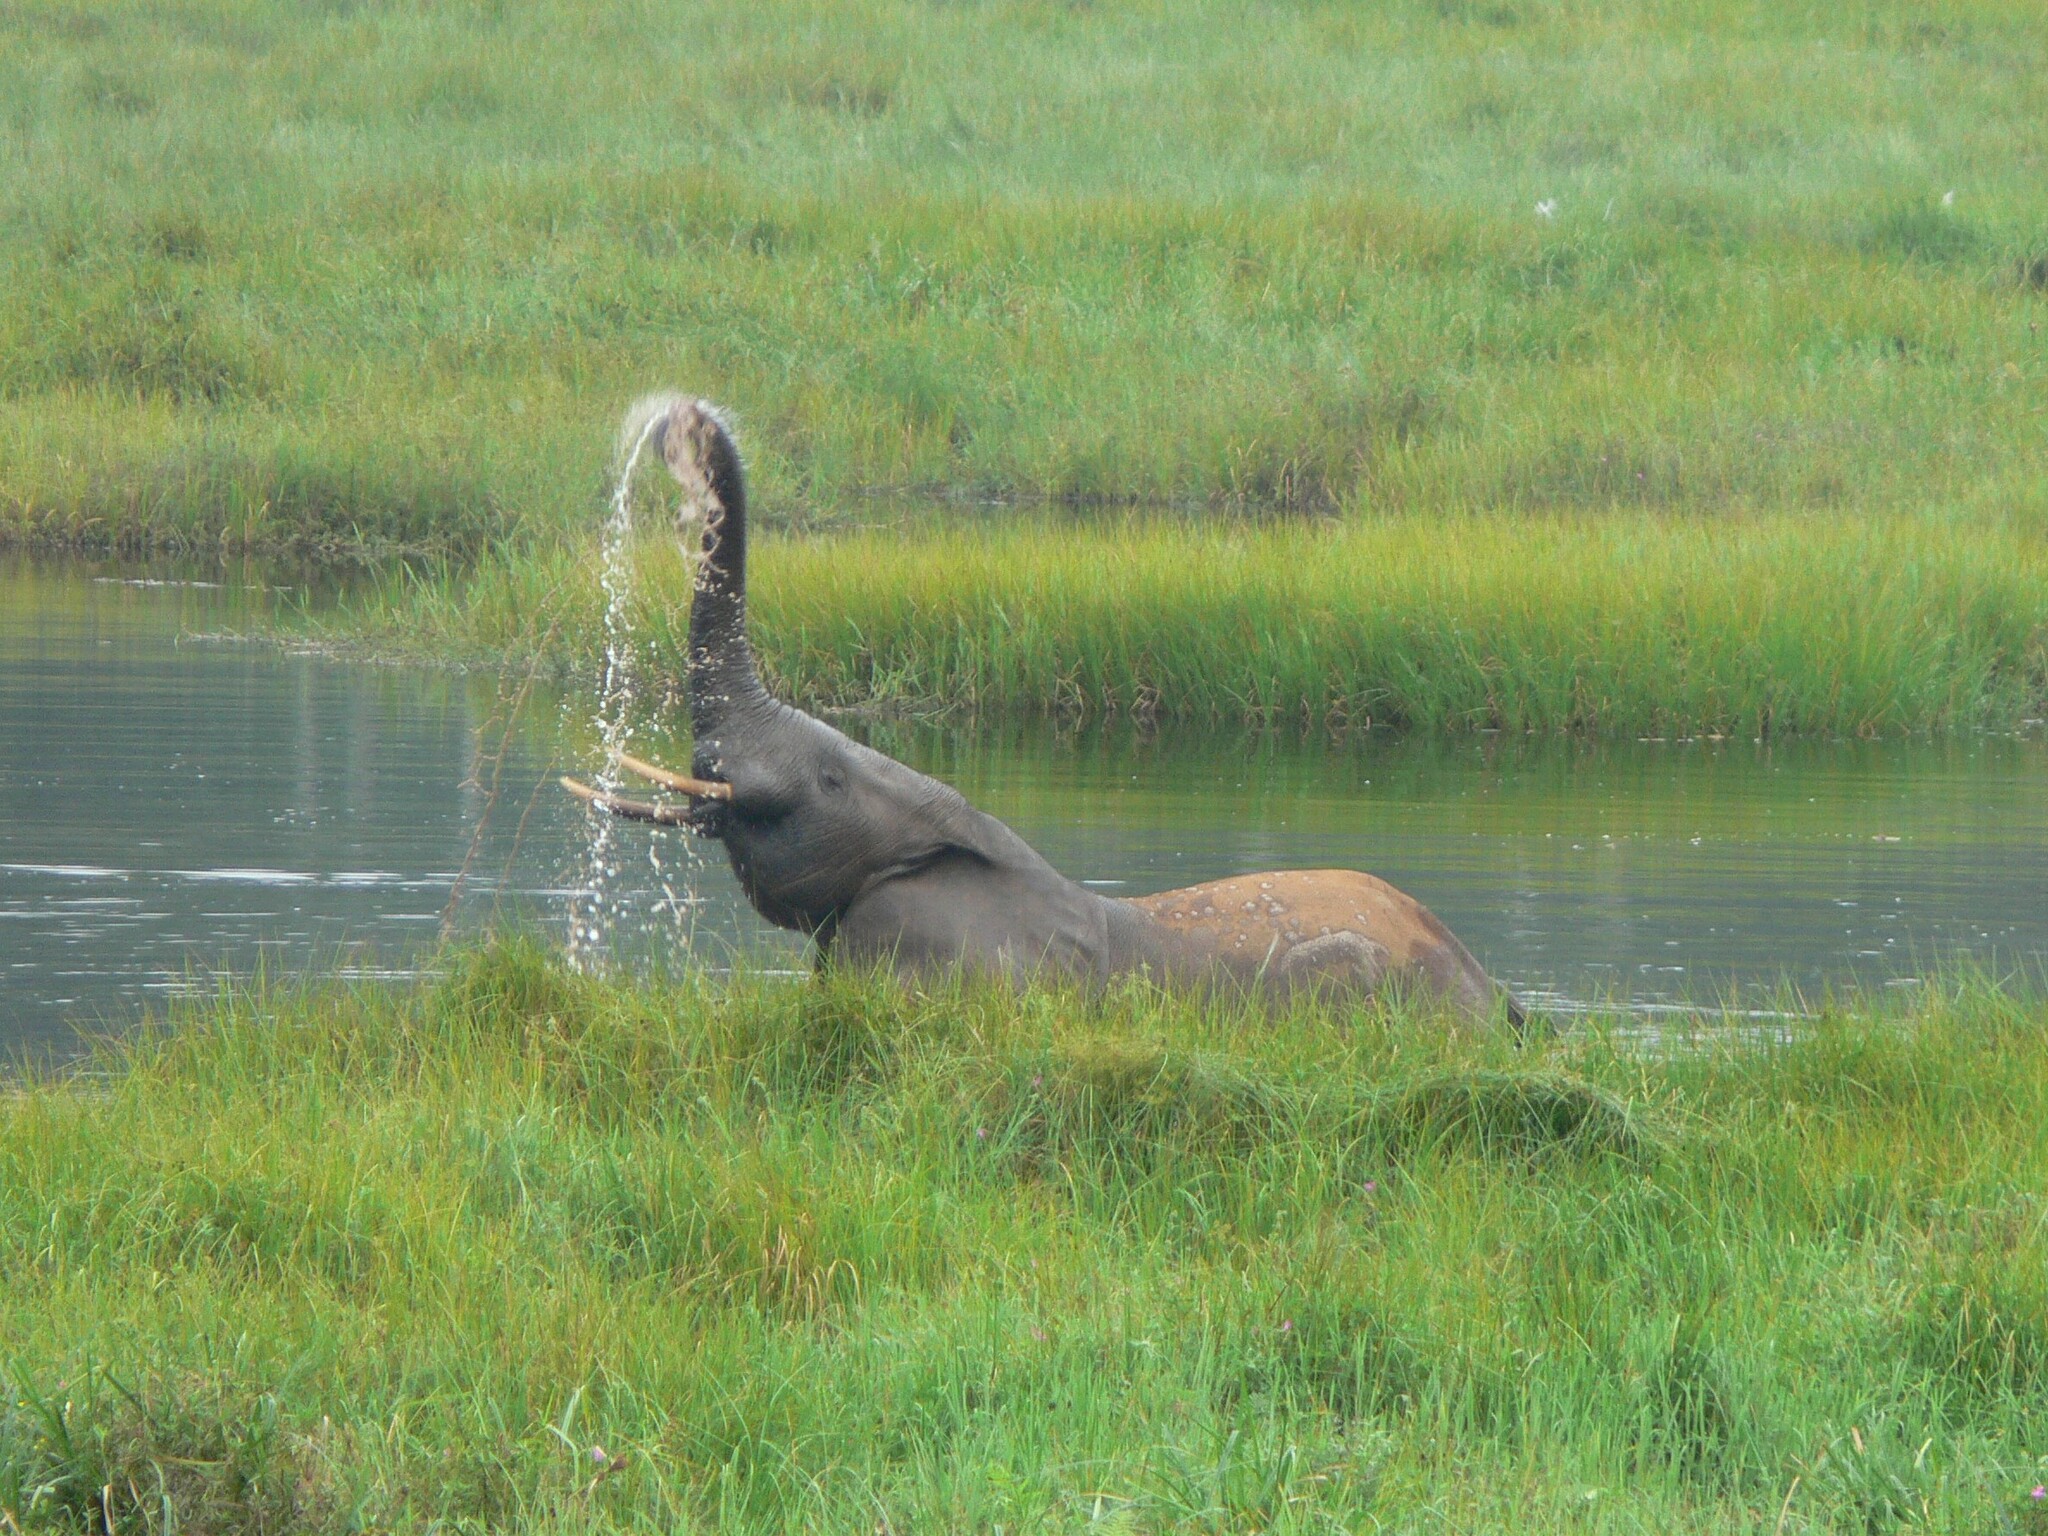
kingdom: Animalia
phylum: Chordata
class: Mammalia
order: Proboscidea
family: Elephantidae
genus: Loxodonta
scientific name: Loxodonta cyclotis
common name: African forest elephant
